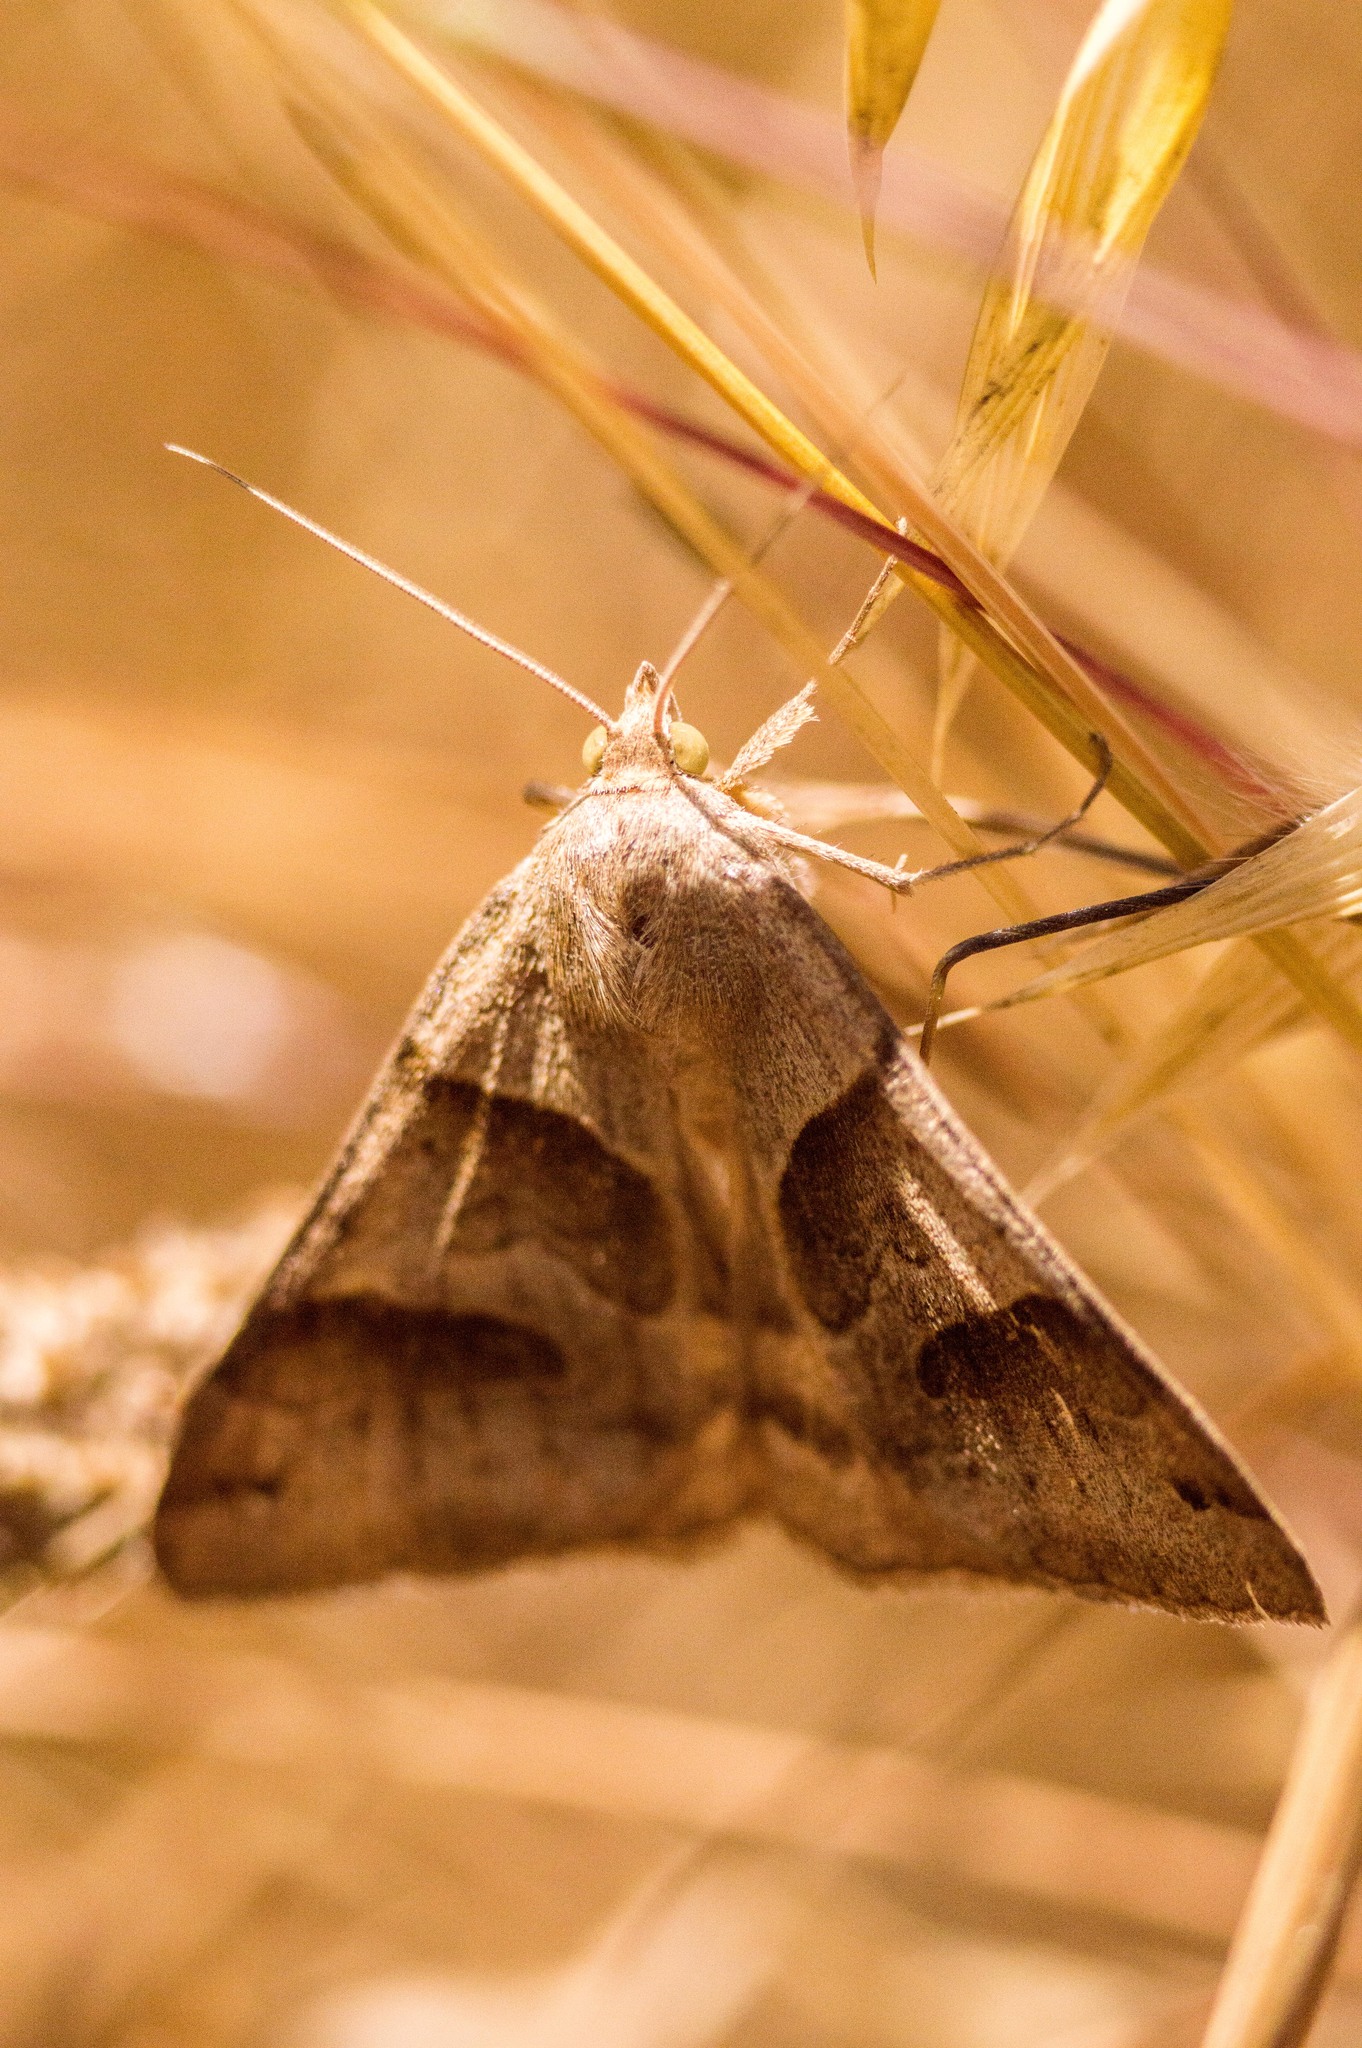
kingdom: Animalia
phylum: Arthropoda
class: Insecta
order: Lepidoptera
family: Erebidae
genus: Caenurgina
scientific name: Caenurgina erechtea
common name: Forage looper moth
